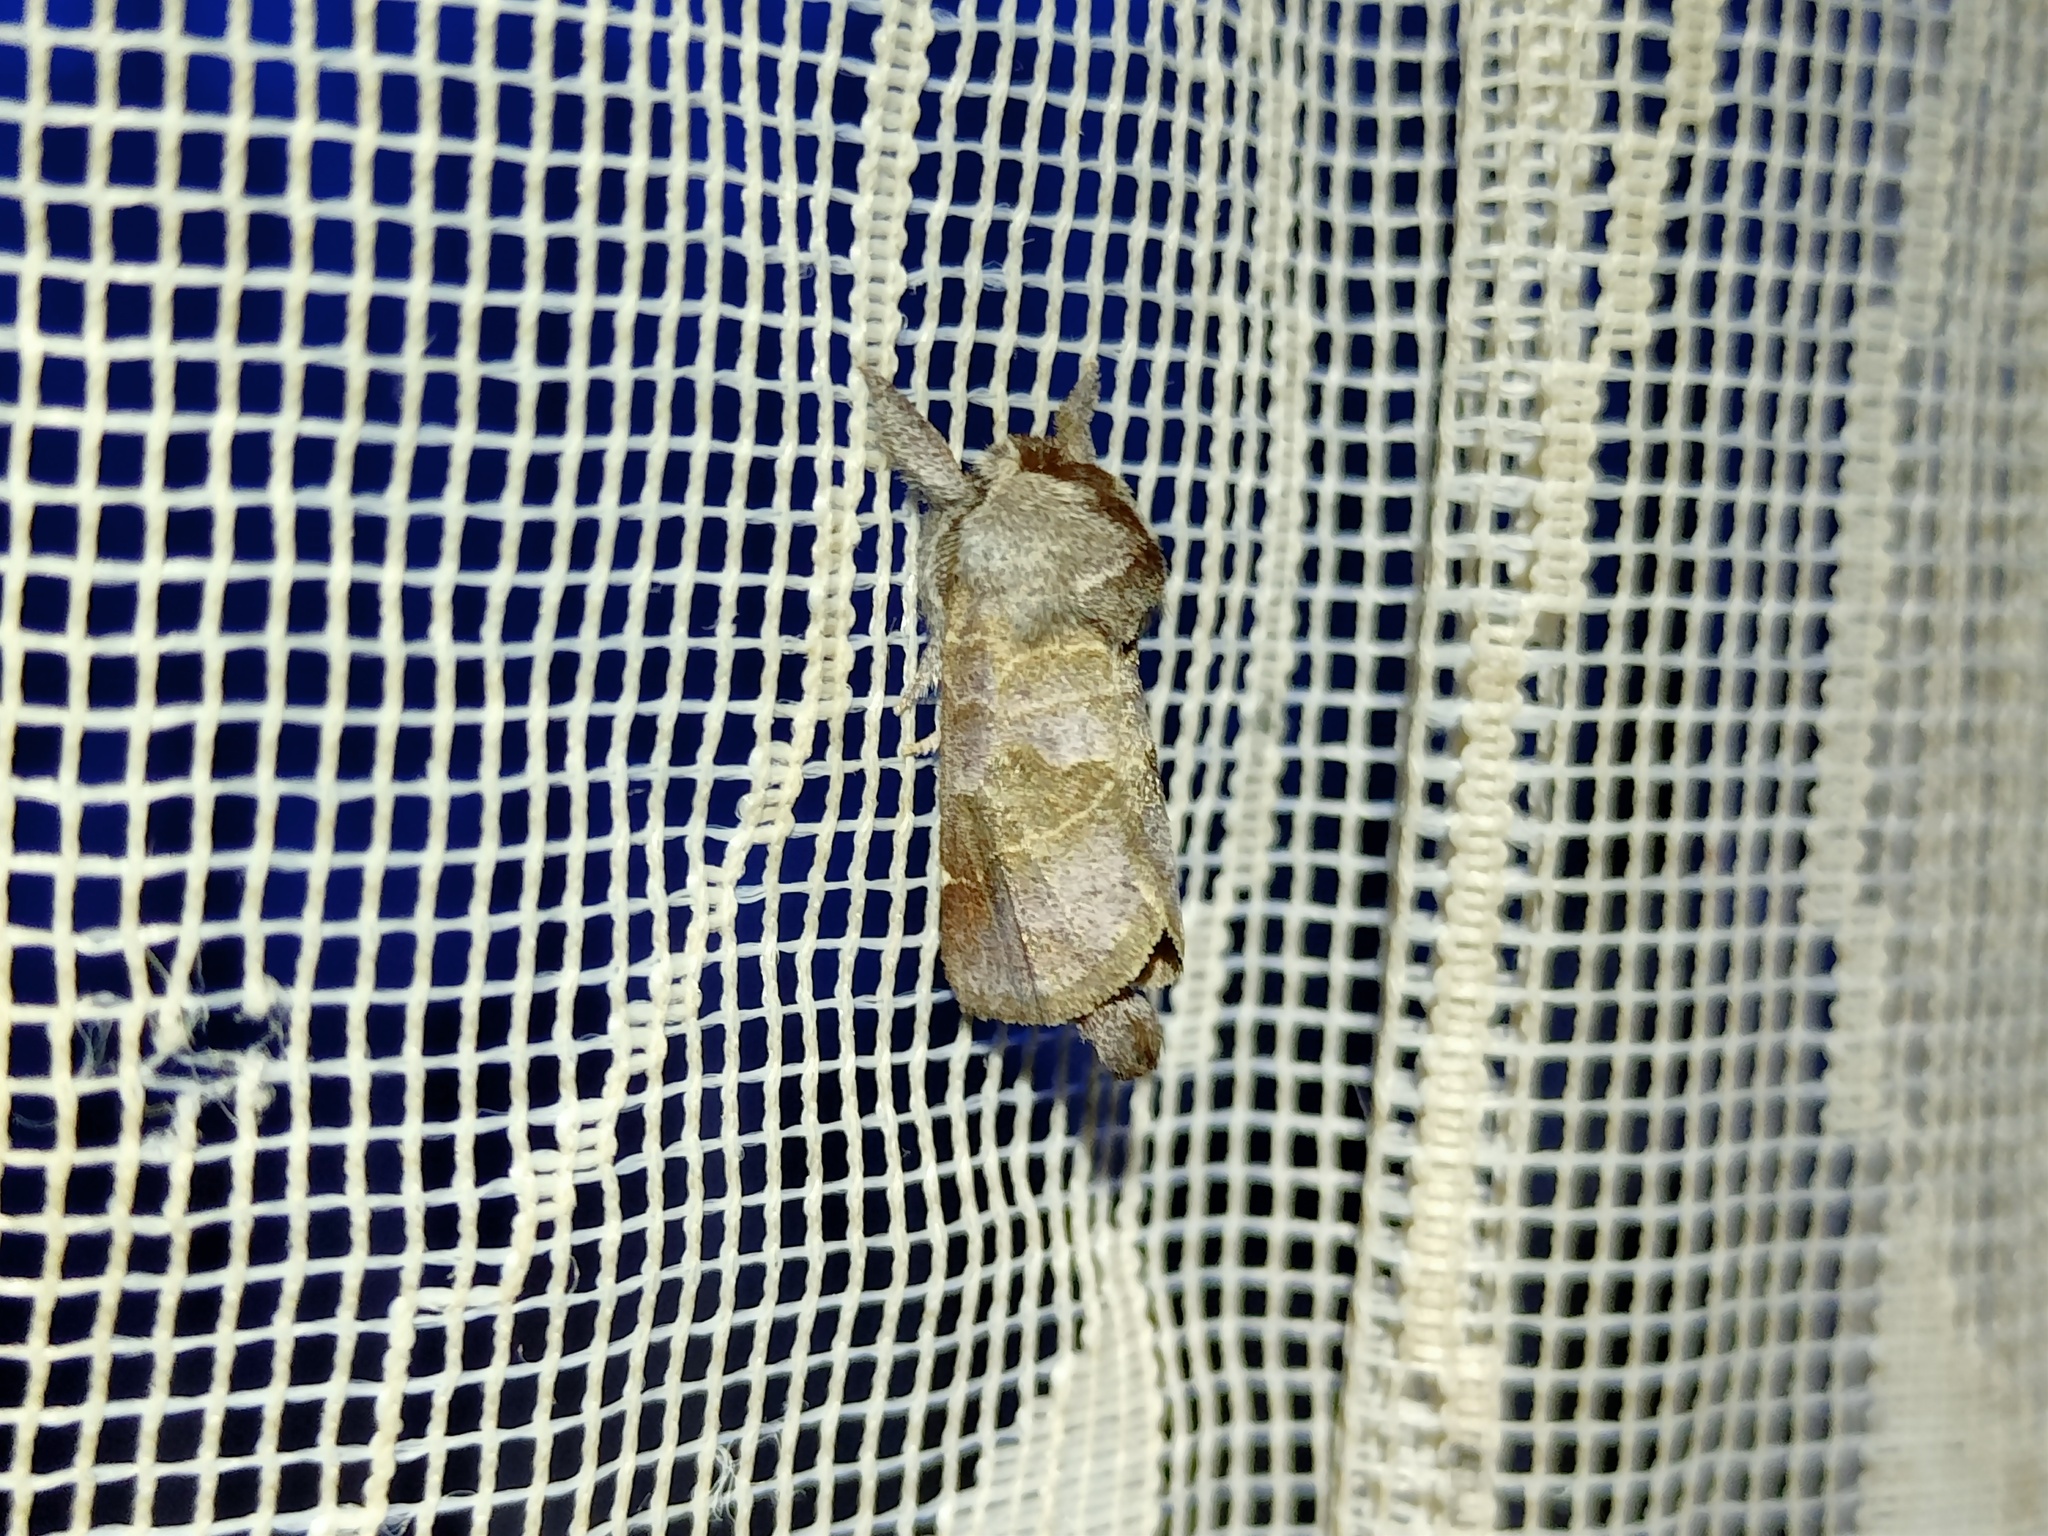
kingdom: Animalia
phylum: Arthropoda
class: Insecta
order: Lepidoptera
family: Notodontidae
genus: Clostera
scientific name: Clostera pigra
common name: Small chocolate-tip
